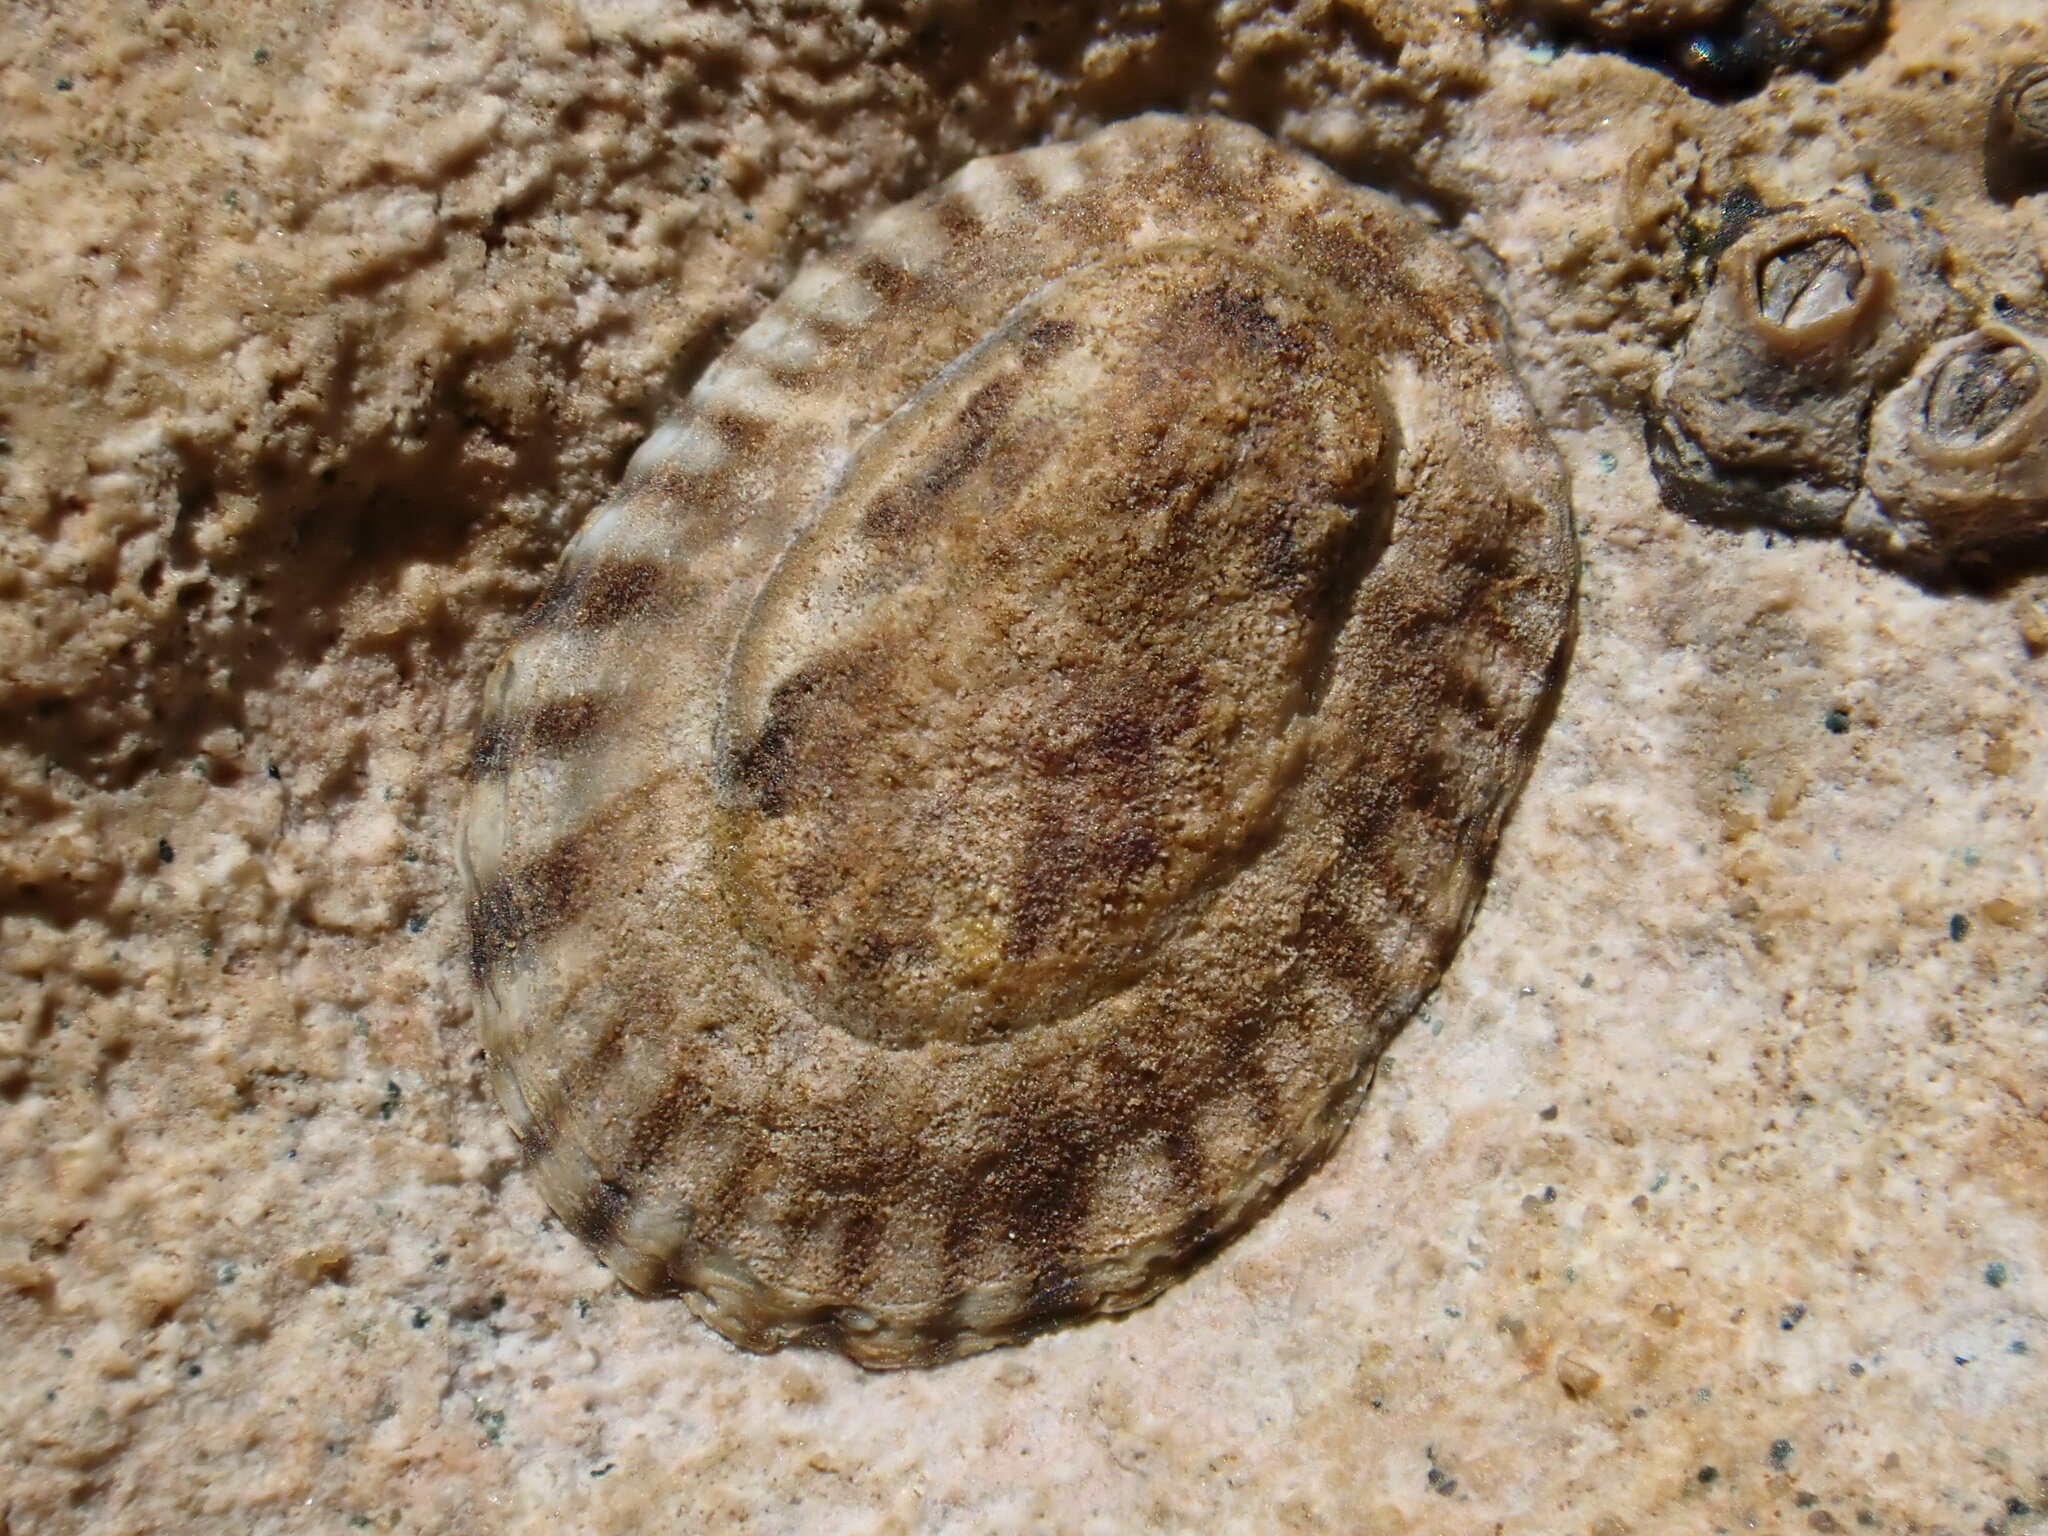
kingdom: Animalia
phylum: Mollusca
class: Gastropoda
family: Lottiidae
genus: Notoacmea
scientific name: Notoacmea parviconoidea
